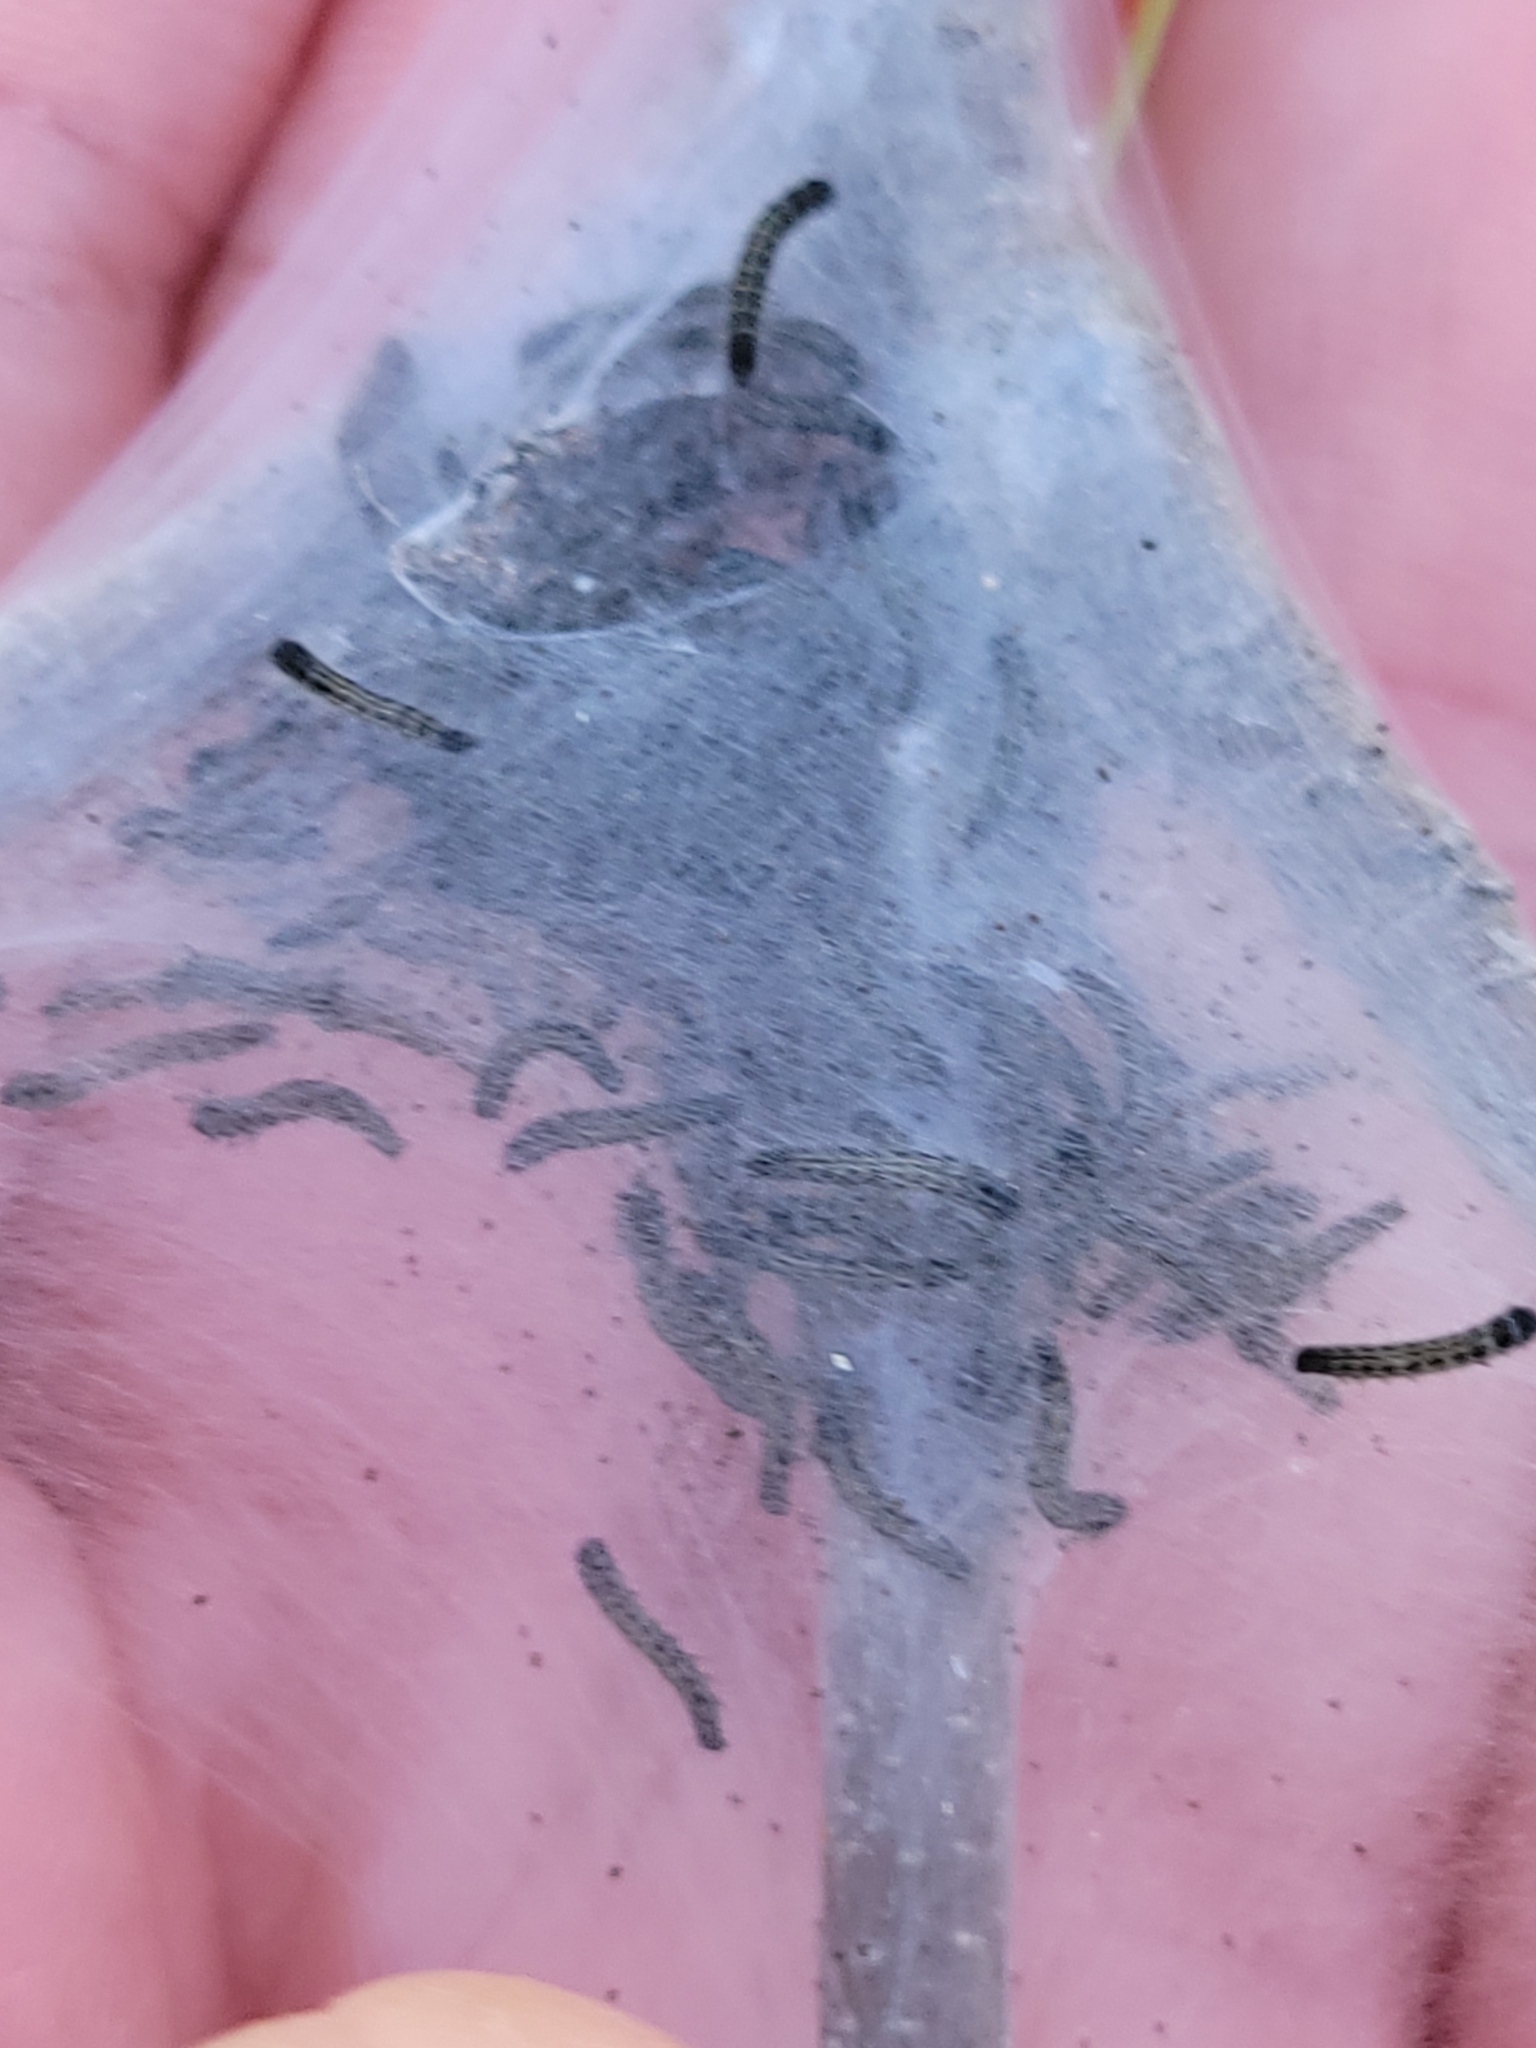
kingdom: Animalia
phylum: Arthropoda
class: Insecta
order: Lepidoptera
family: Lasiocampidae
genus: Malacosoma
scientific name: Malacosoma americana
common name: Eastern tent caterpillar moth
